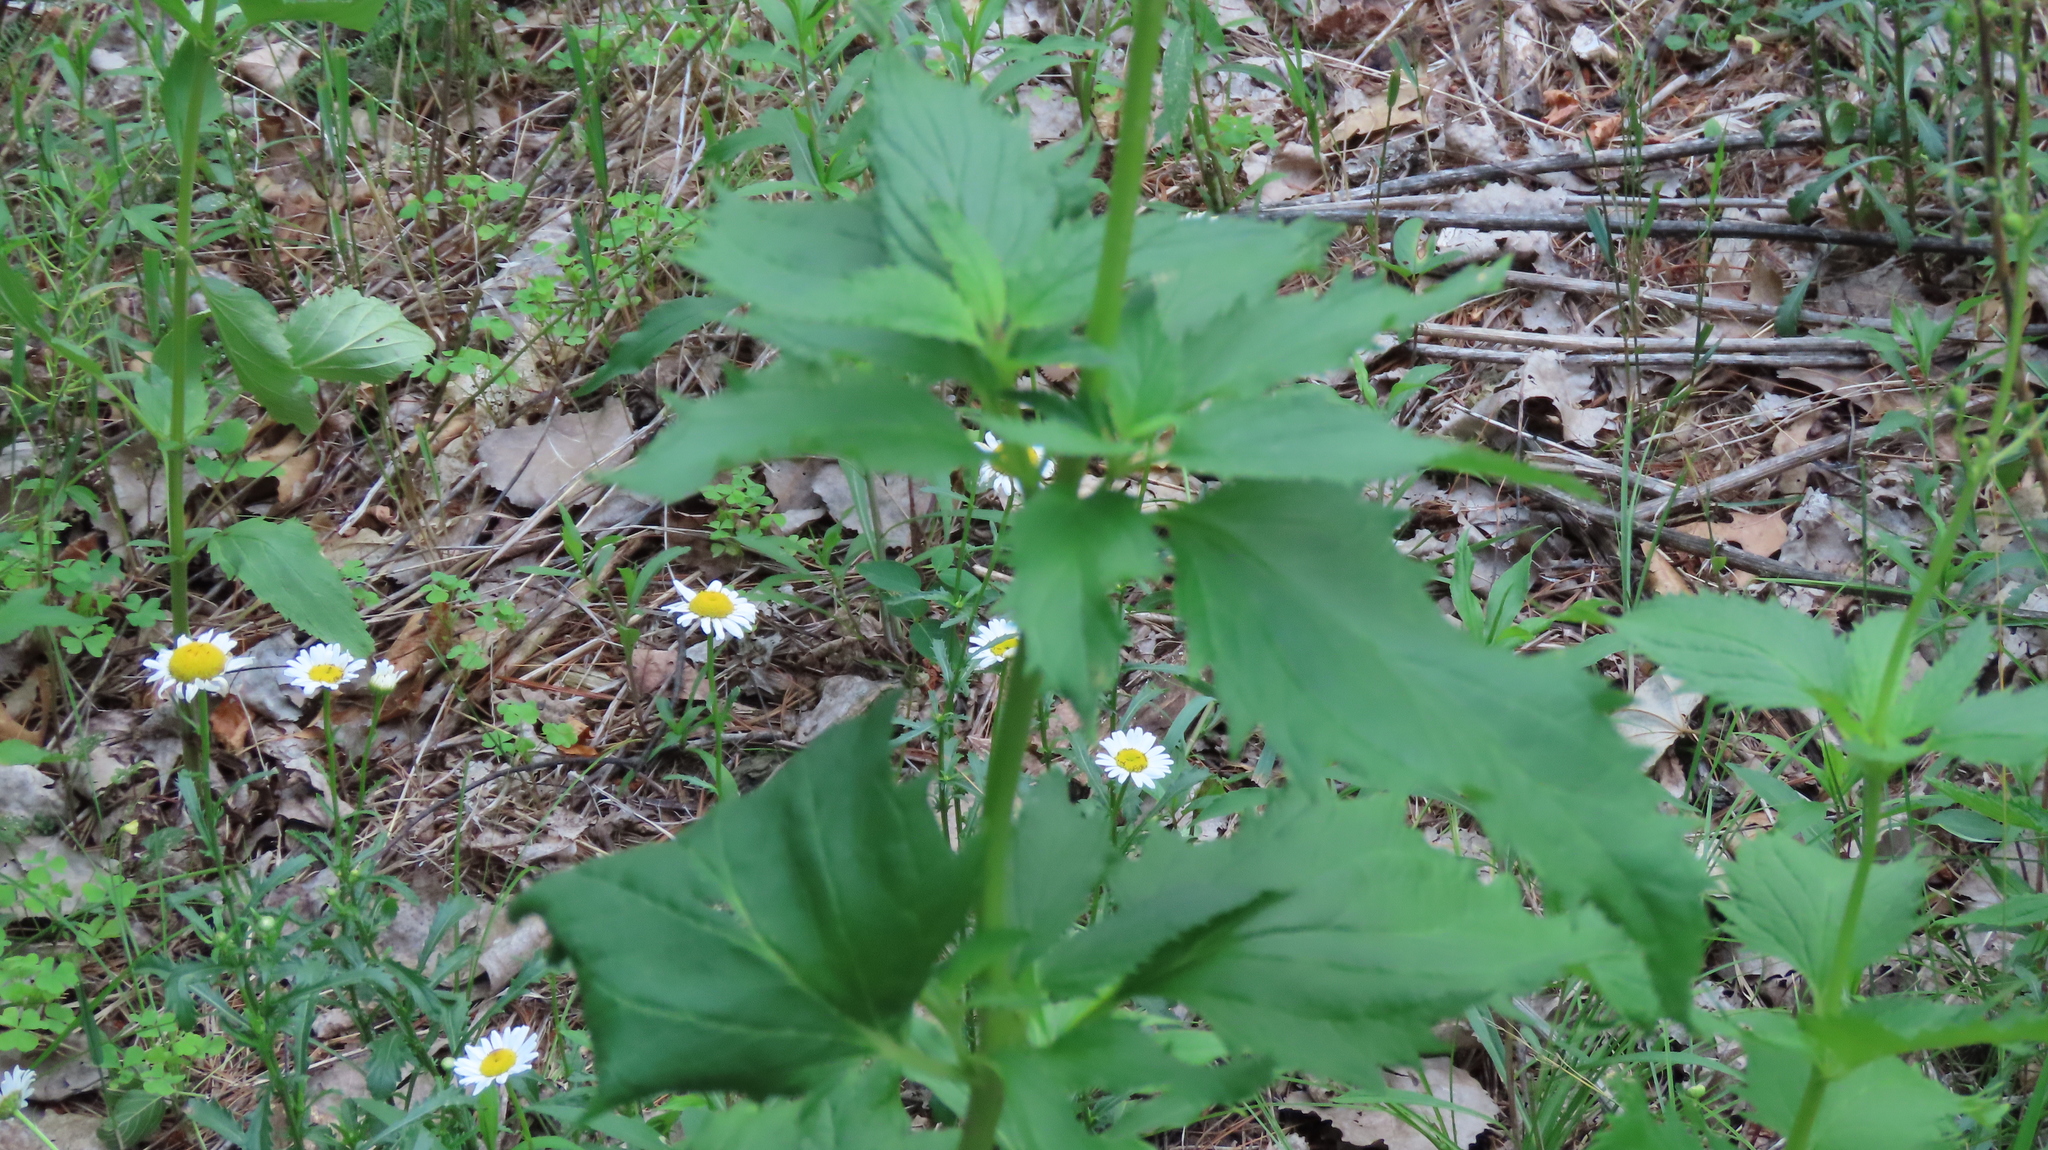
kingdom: Plantae
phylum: Tracheophyta
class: Magnoliopsida
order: Lamiales
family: Scrophulariaceae
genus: Scrophularia
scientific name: Scrophularia lanceolata
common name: American figwort
